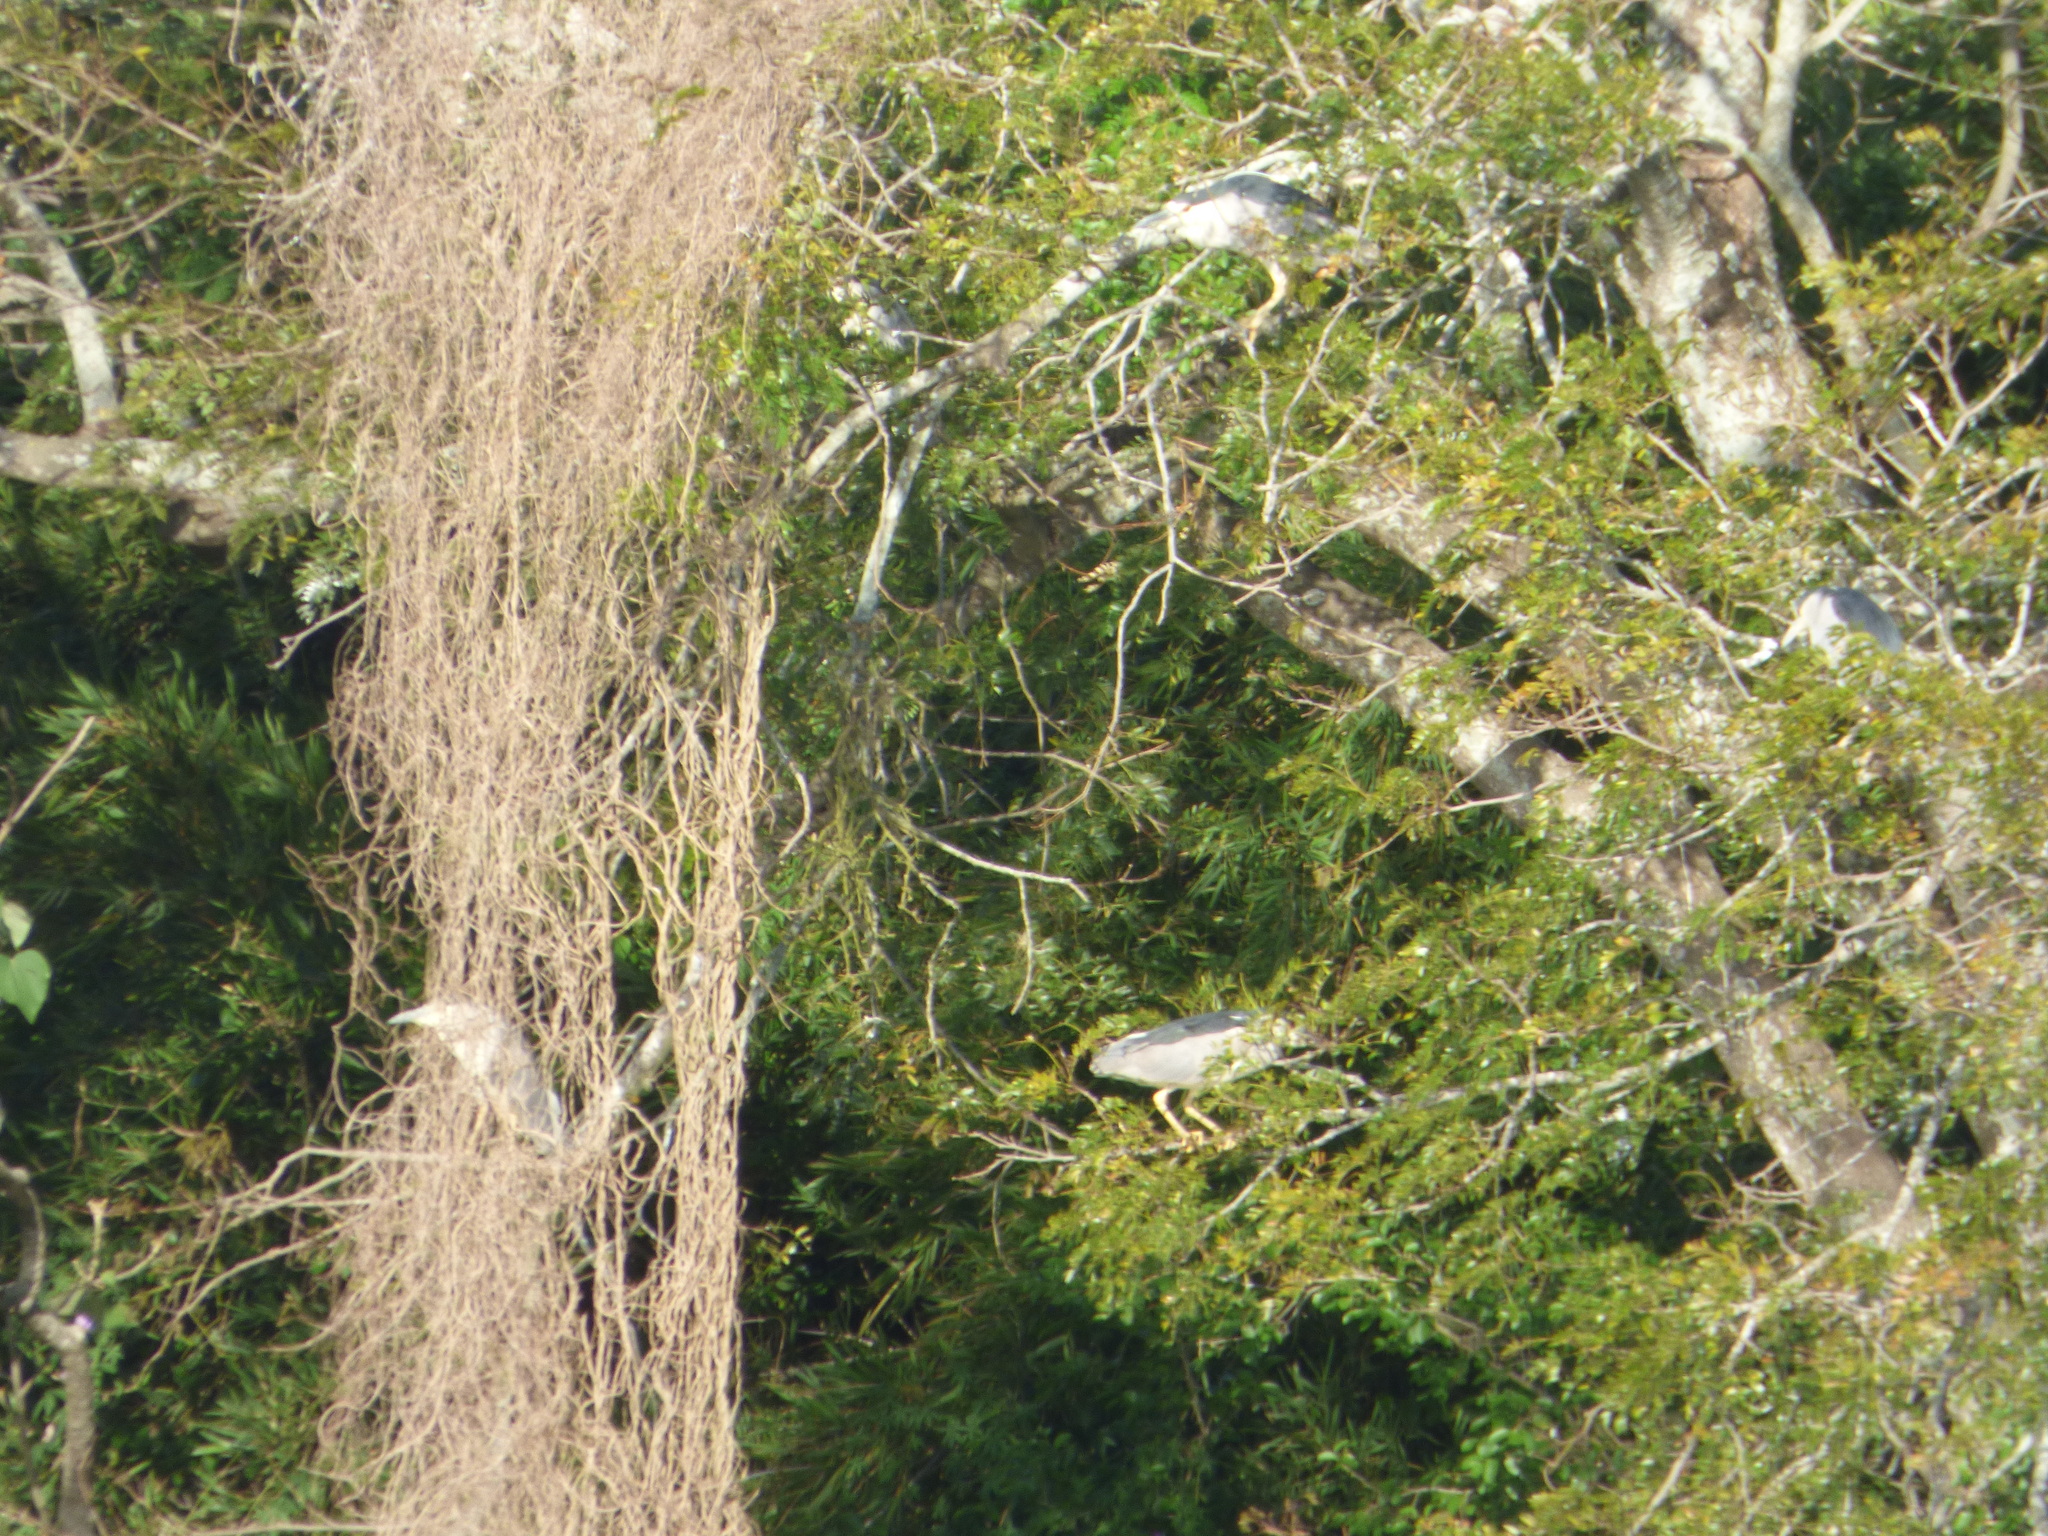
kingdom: Animalia
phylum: Chordata
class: Aves
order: Pelecaniformes
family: Ardeidae
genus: Nycticorax
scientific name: Nycticorax nycticorax
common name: Black-crowned night heron
